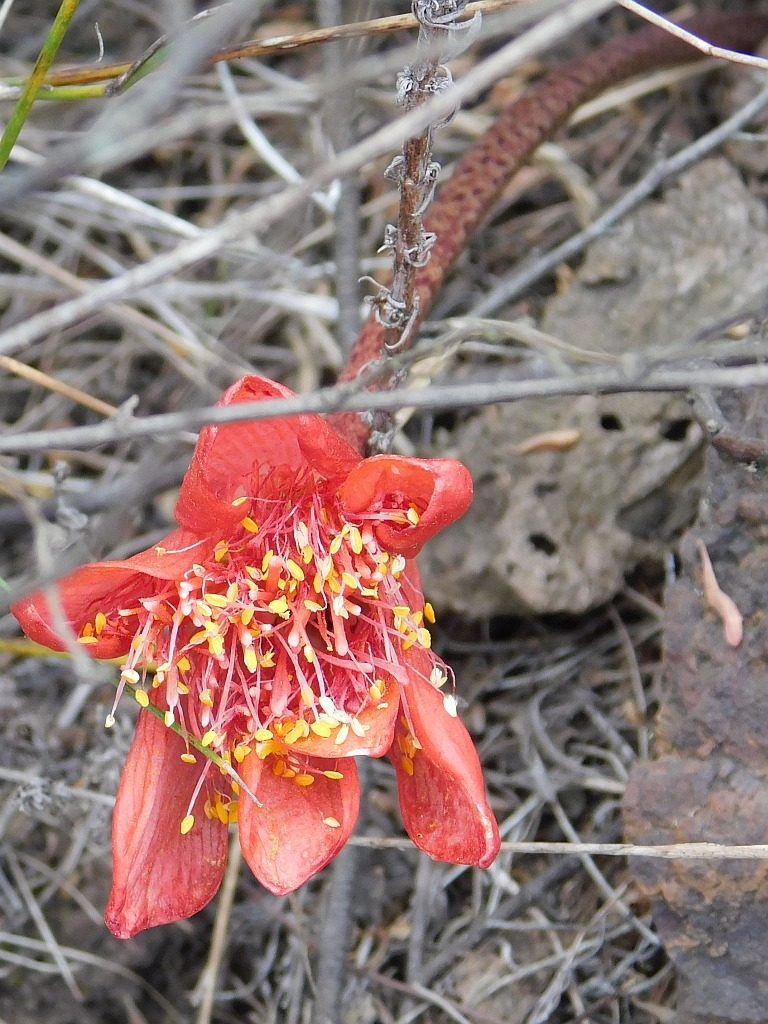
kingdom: Plantae
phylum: Tracheophyta
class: Liliopsida
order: Asparagales
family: Amaryllidaceae
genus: Haemanthus
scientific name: Haemanthus coccineus
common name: Cape-tulip
